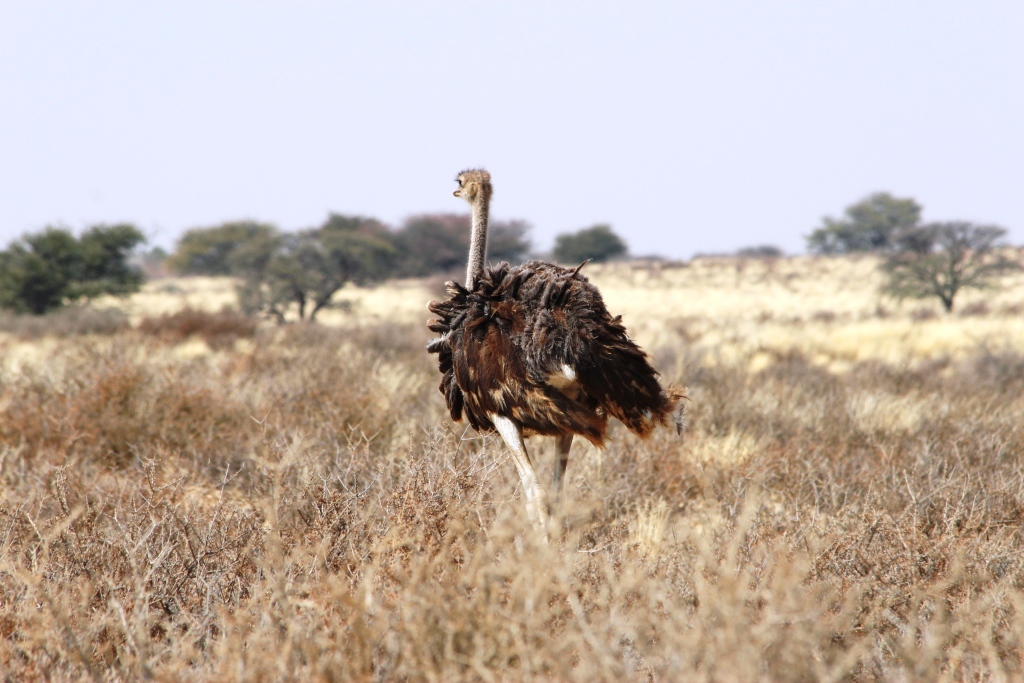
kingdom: Animalia
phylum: Chordata
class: Aves
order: Struthioniformes
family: Struthionidae
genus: Struthio
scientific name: Struthio camelus
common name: Common ostrich
